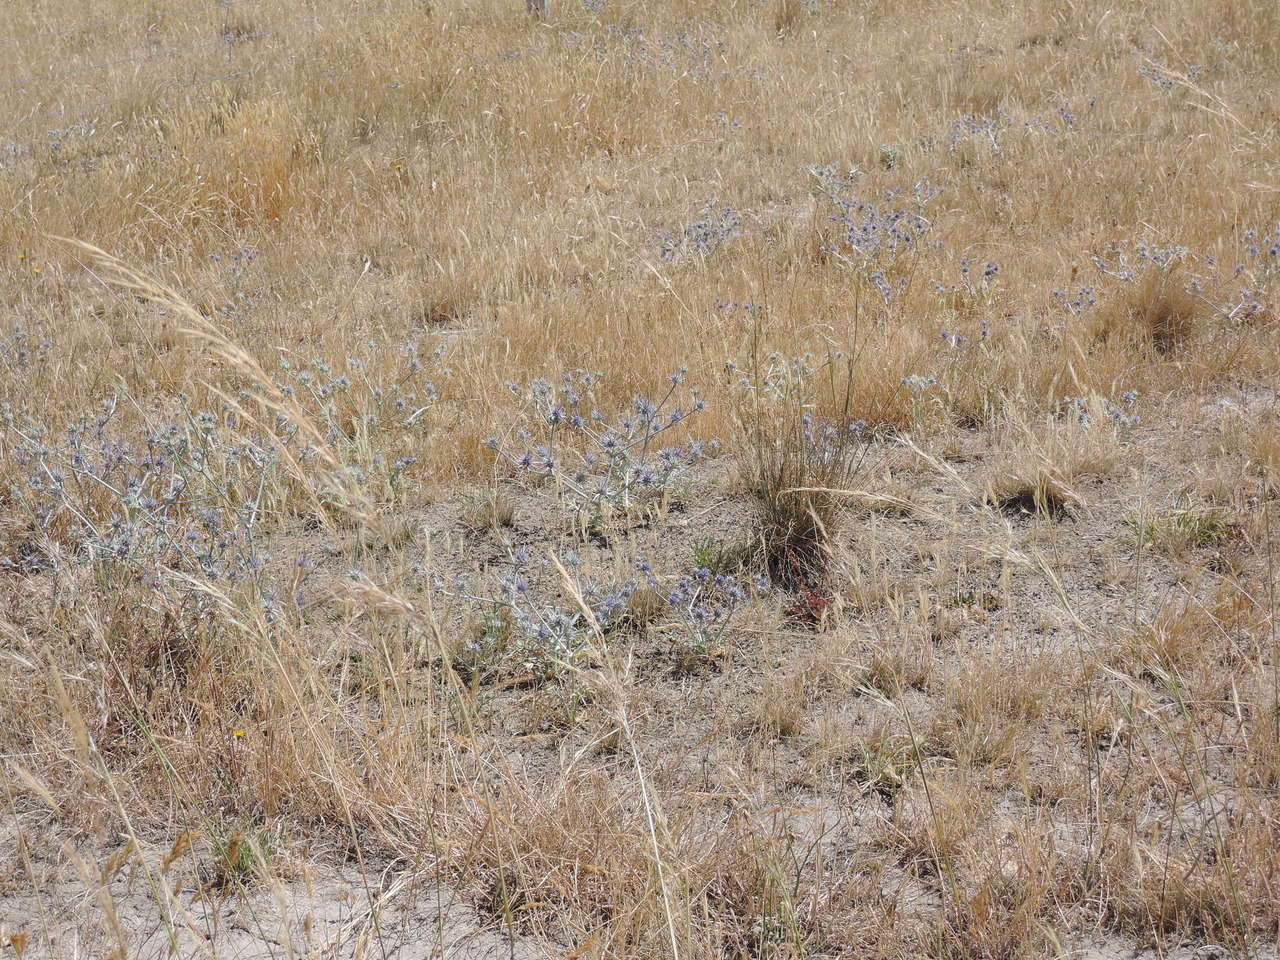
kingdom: Plantae
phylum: Tracheophyta
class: Magnoliopsida
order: Apiales
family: Apiaceae
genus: Eryngium
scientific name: Eryngium ovinum
